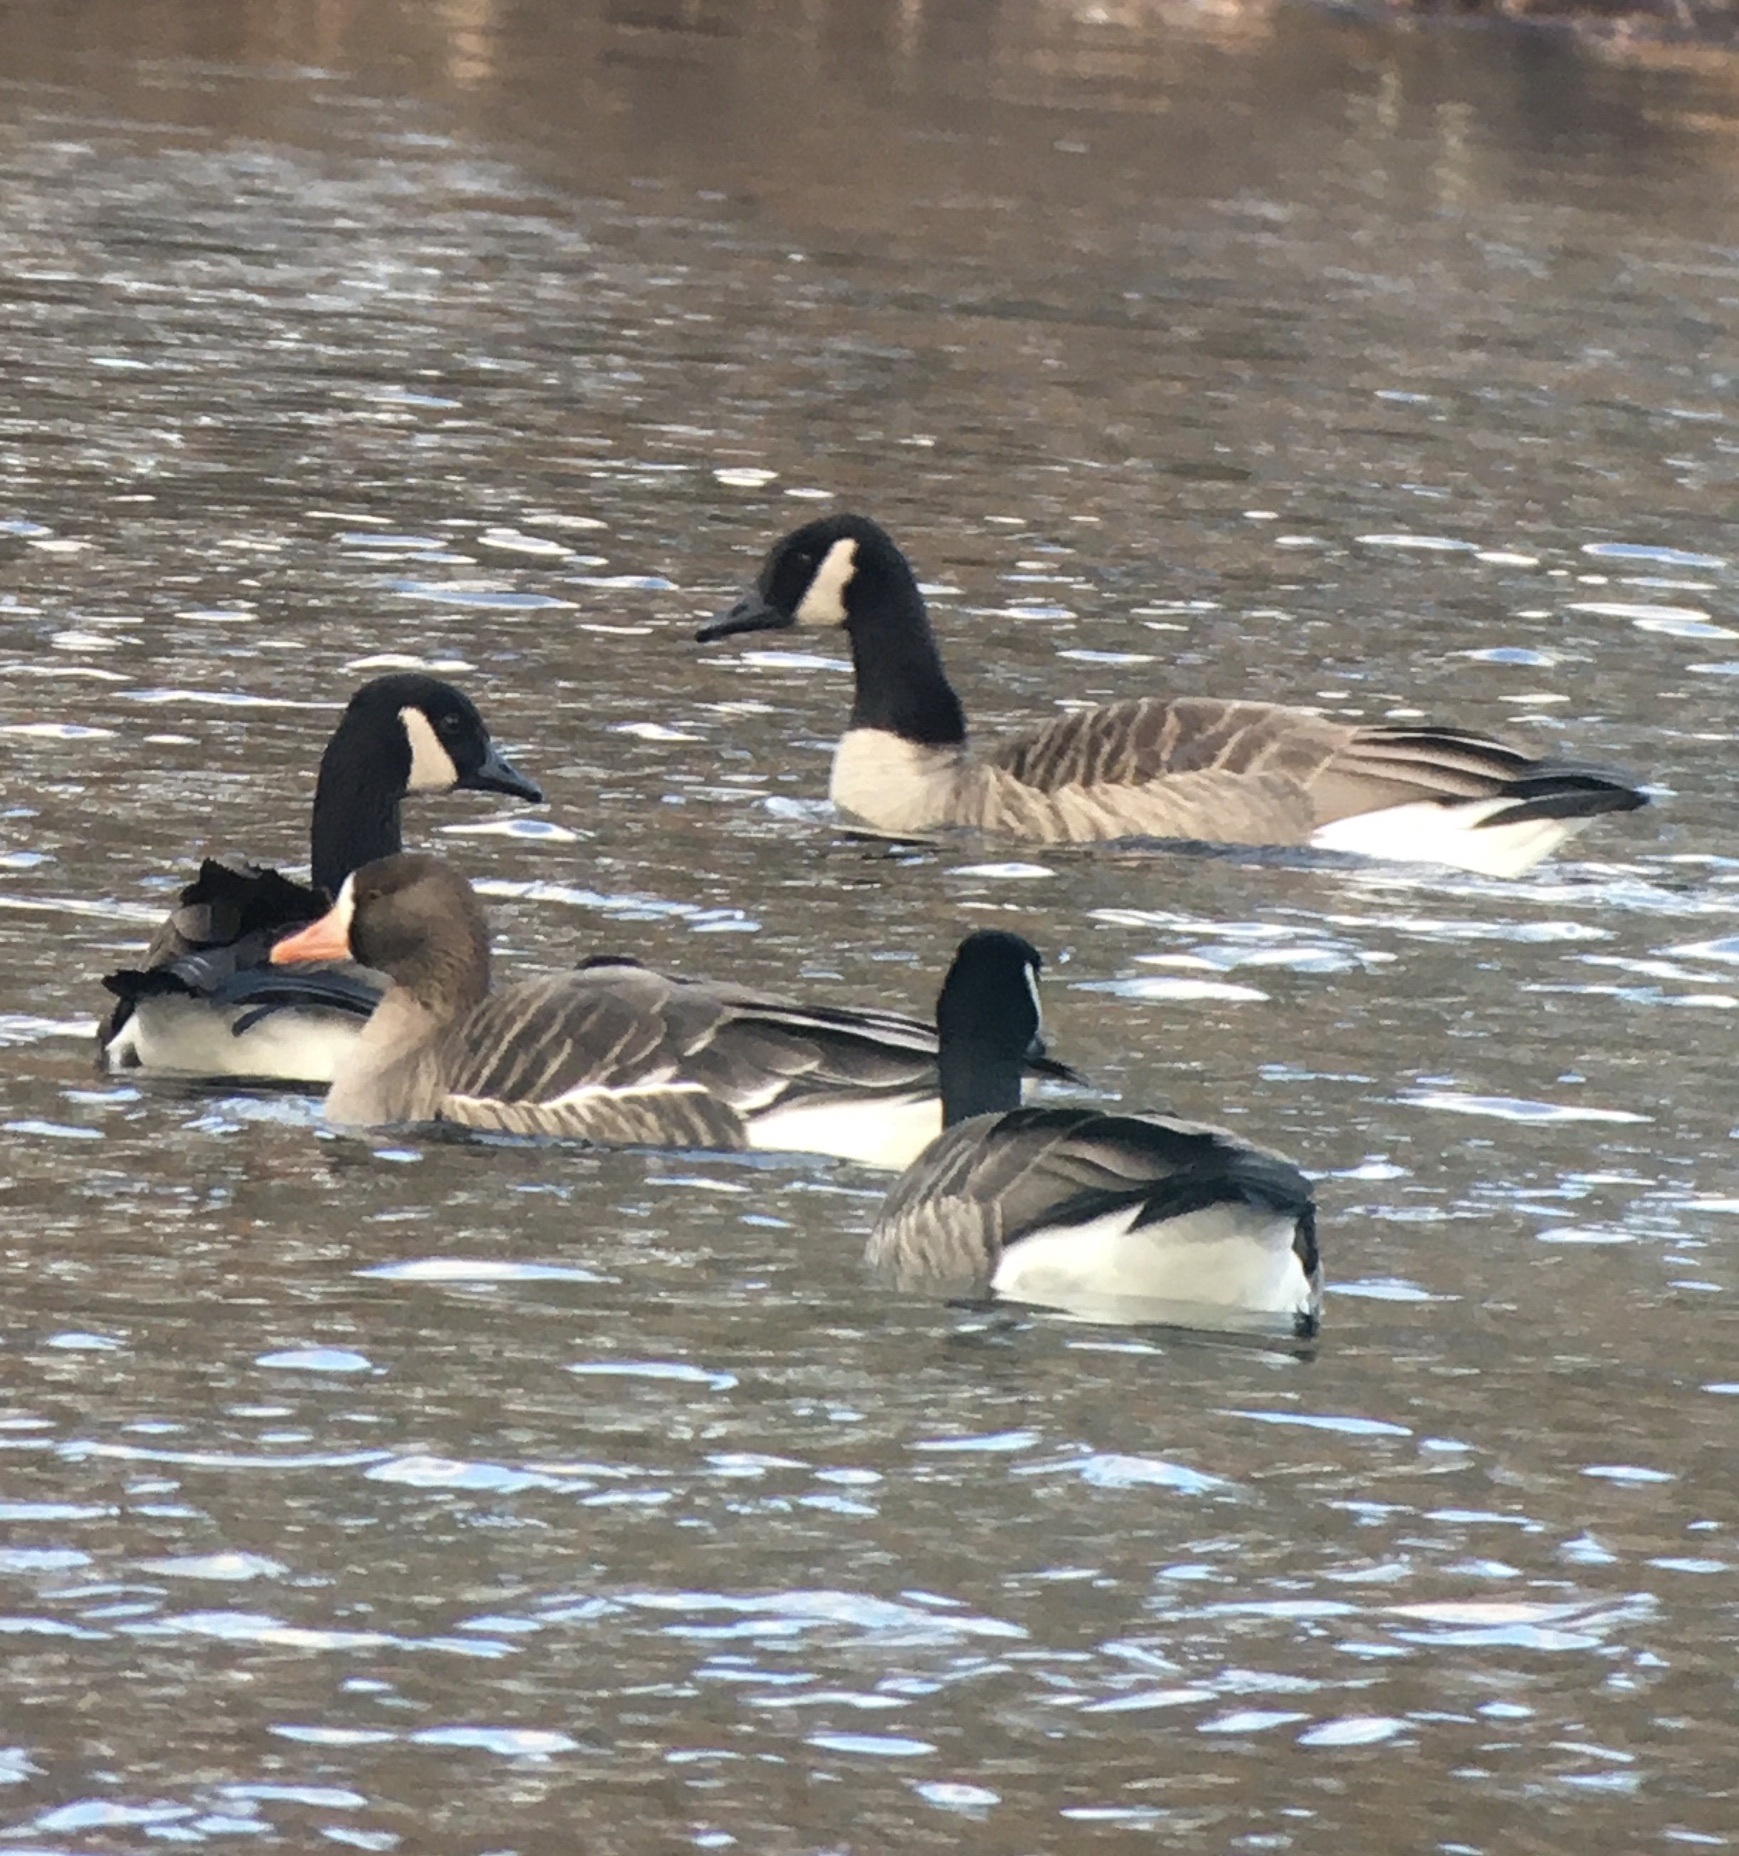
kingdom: Animalia
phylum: Chordata
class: Aves
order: Anseriformes
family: Anatidae
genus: Branta
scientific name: Branta canadensis
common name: Canada goose
